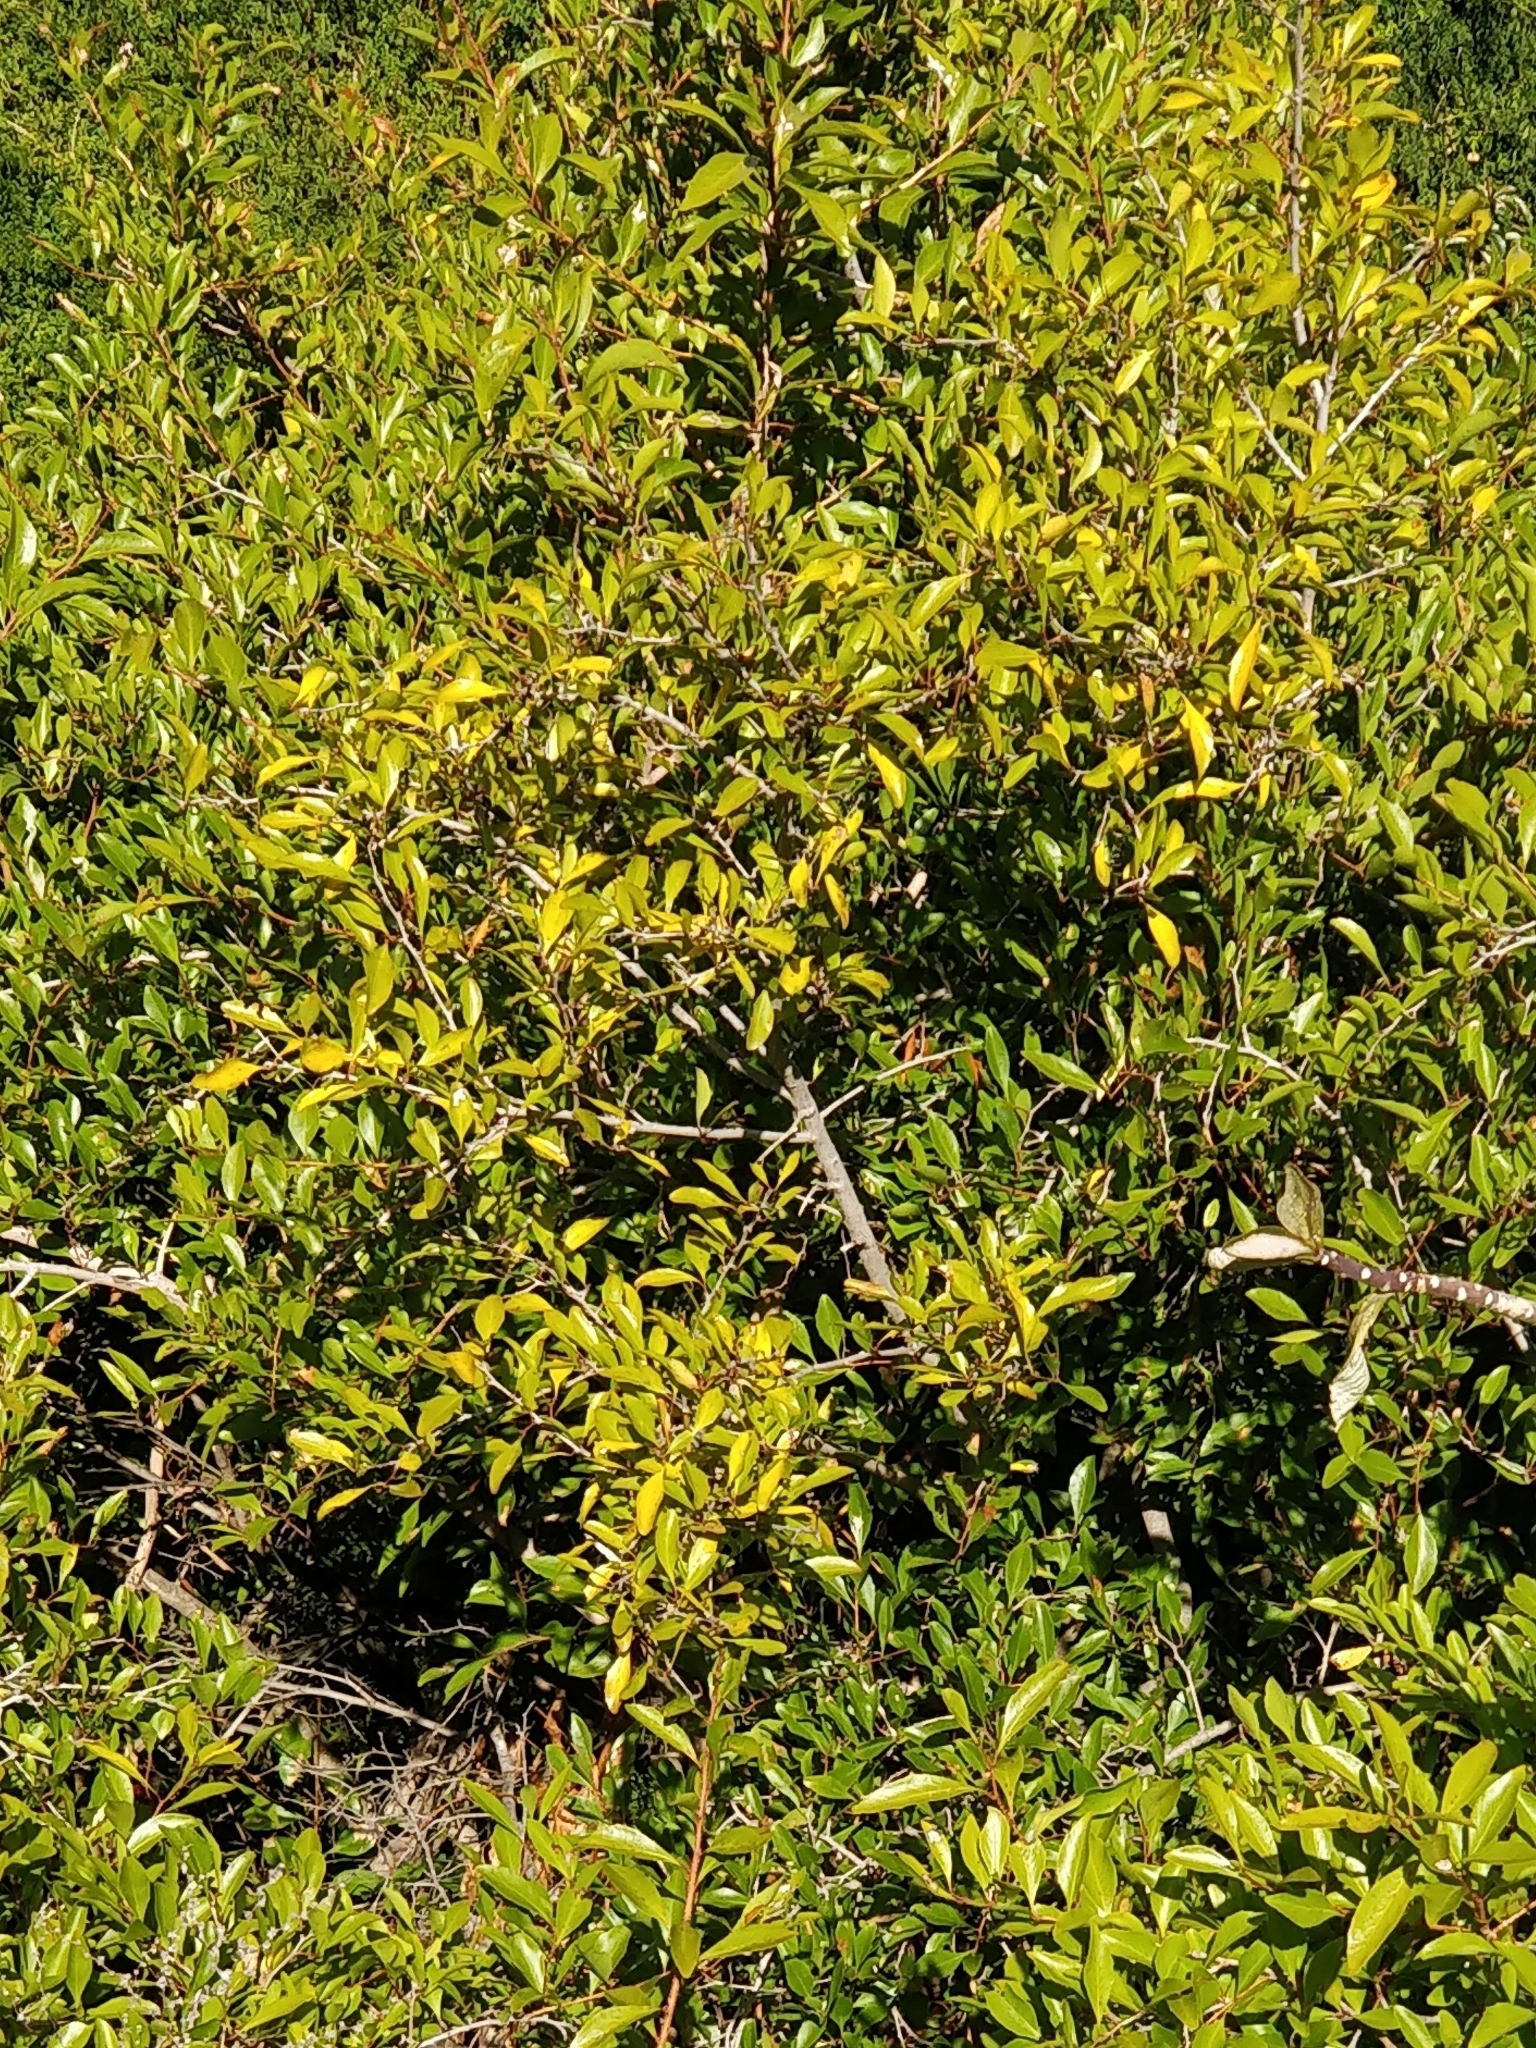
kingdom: Plantae
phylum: Tracheophyta
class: Magnoliopsida
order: Celastrales
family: Celastraceae
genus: Gymnosporia
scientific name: Gymnosporia dryandri
